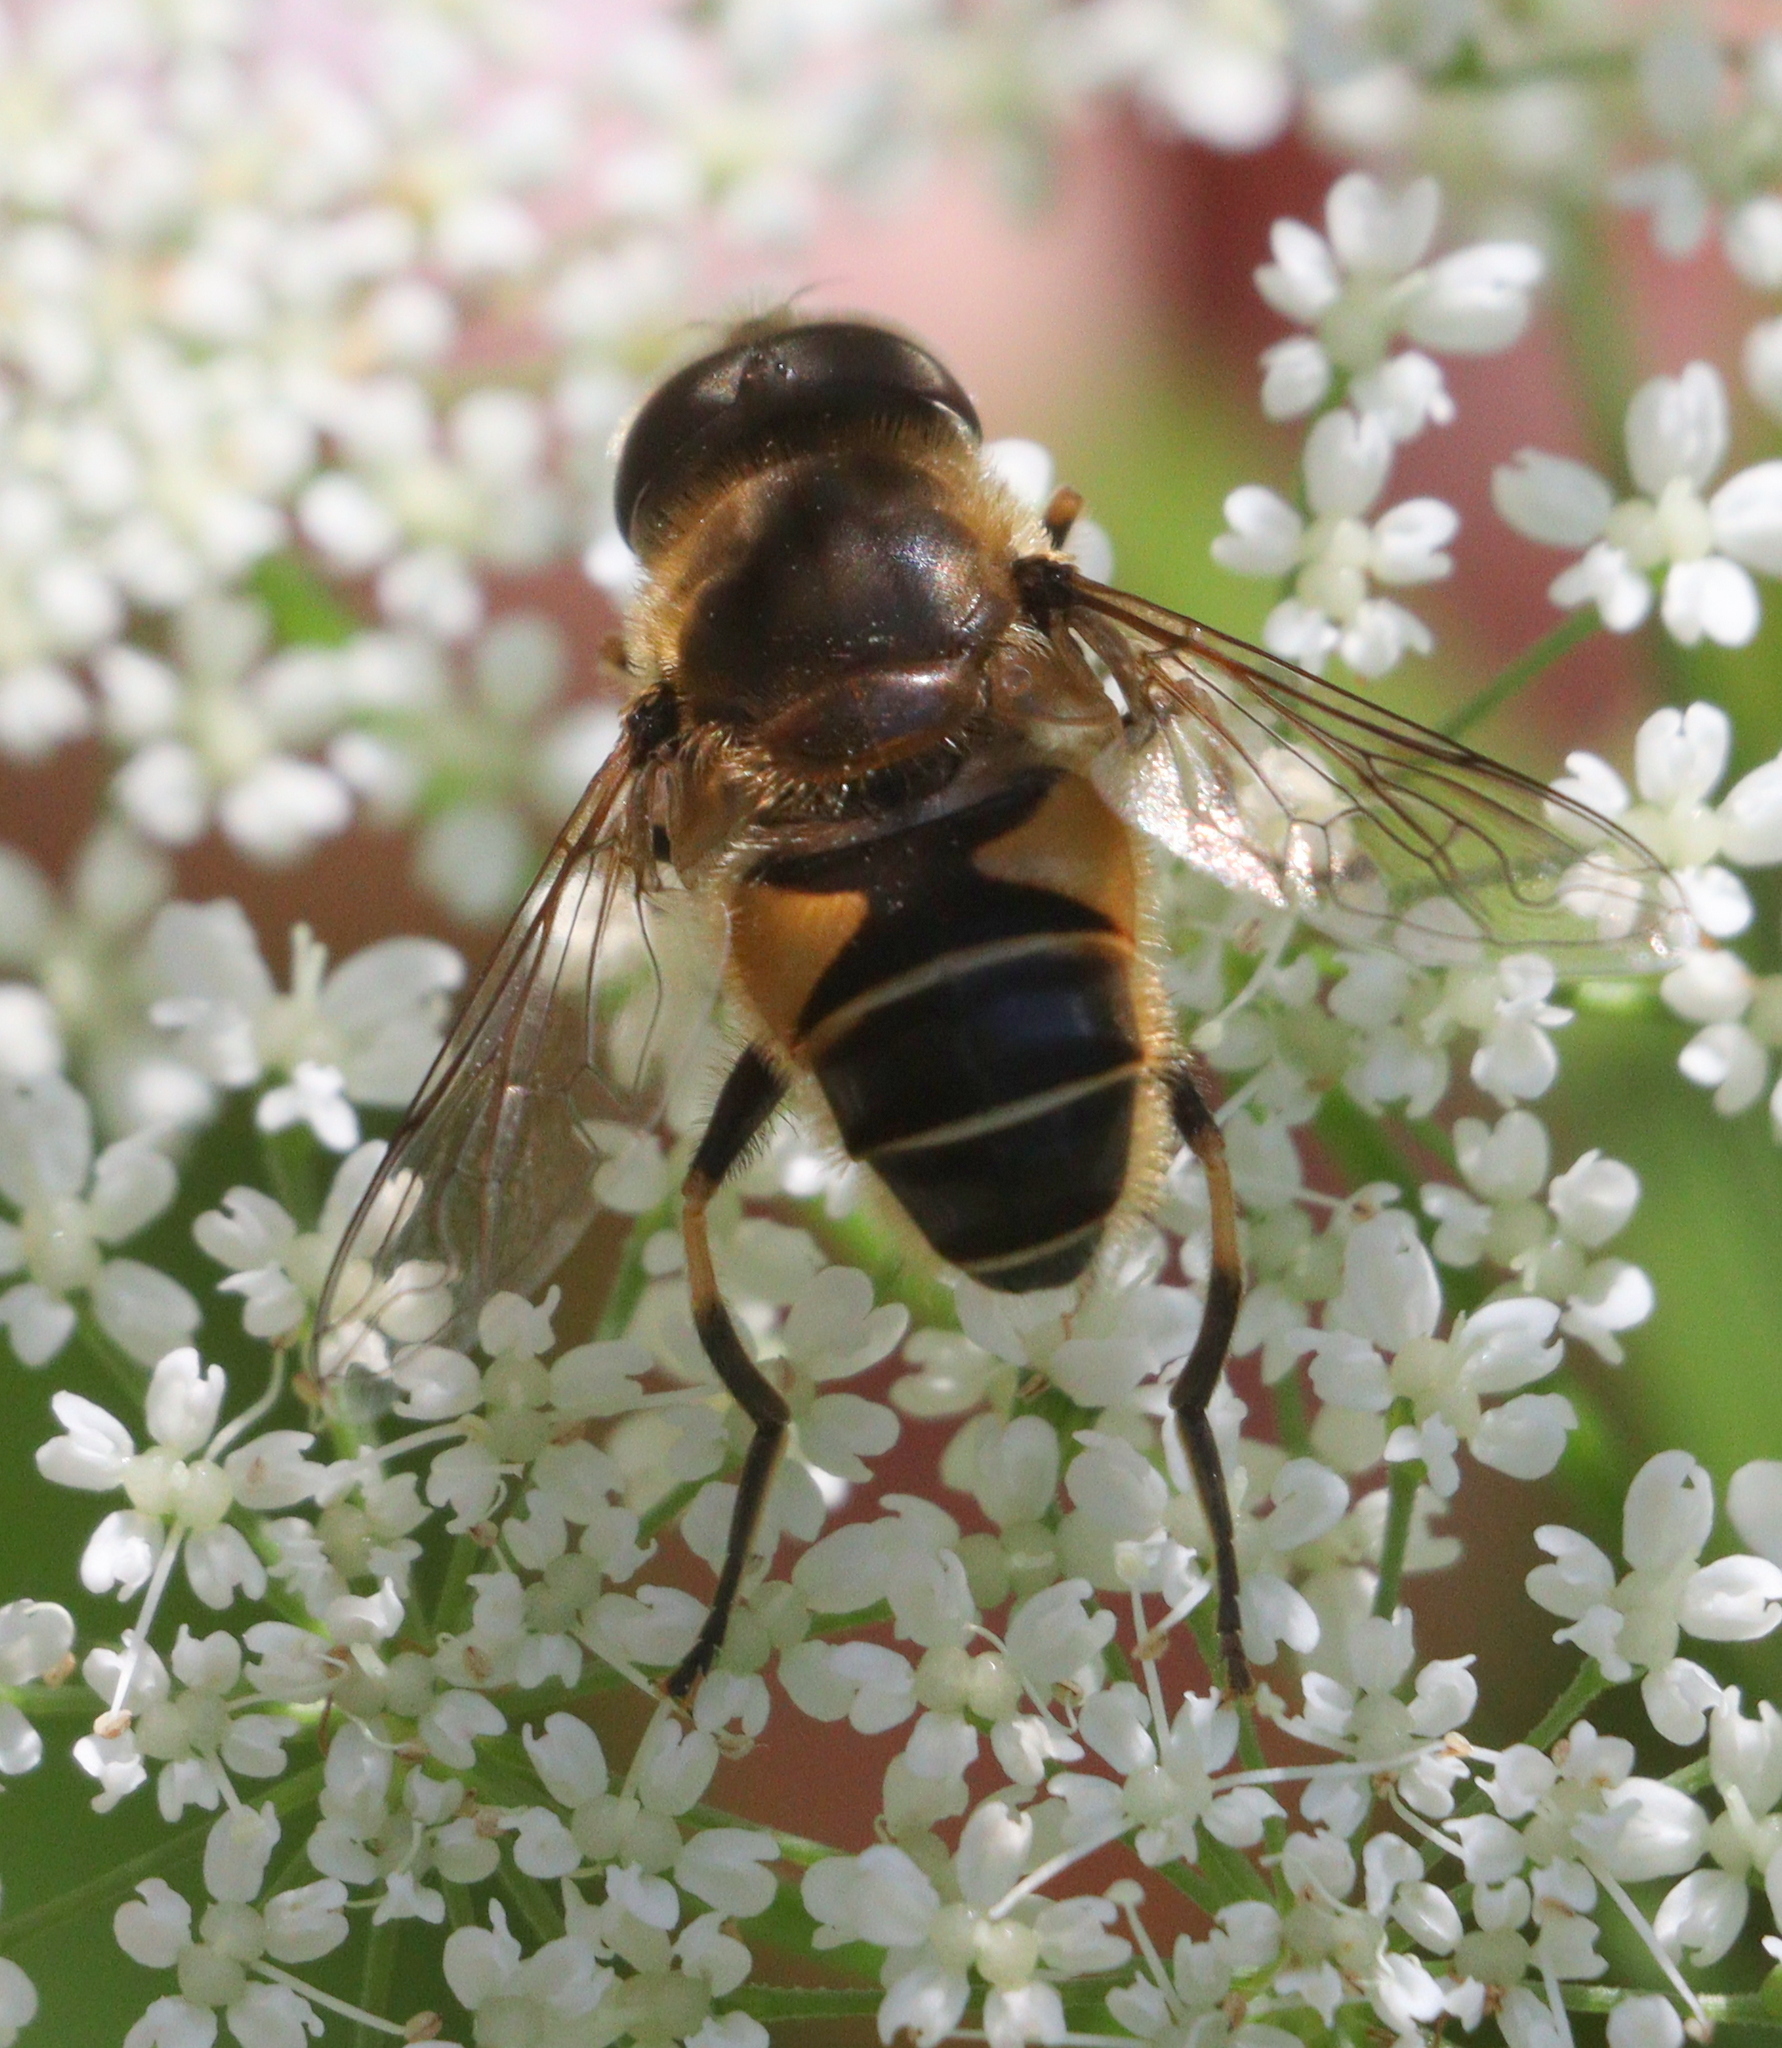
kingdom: Animalia
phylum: Arthropoda
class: Insecta
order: Diptera
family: Syrphidae
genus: Eristalis
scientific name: Eristalis nemorum
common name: Orange-spined drone fly
